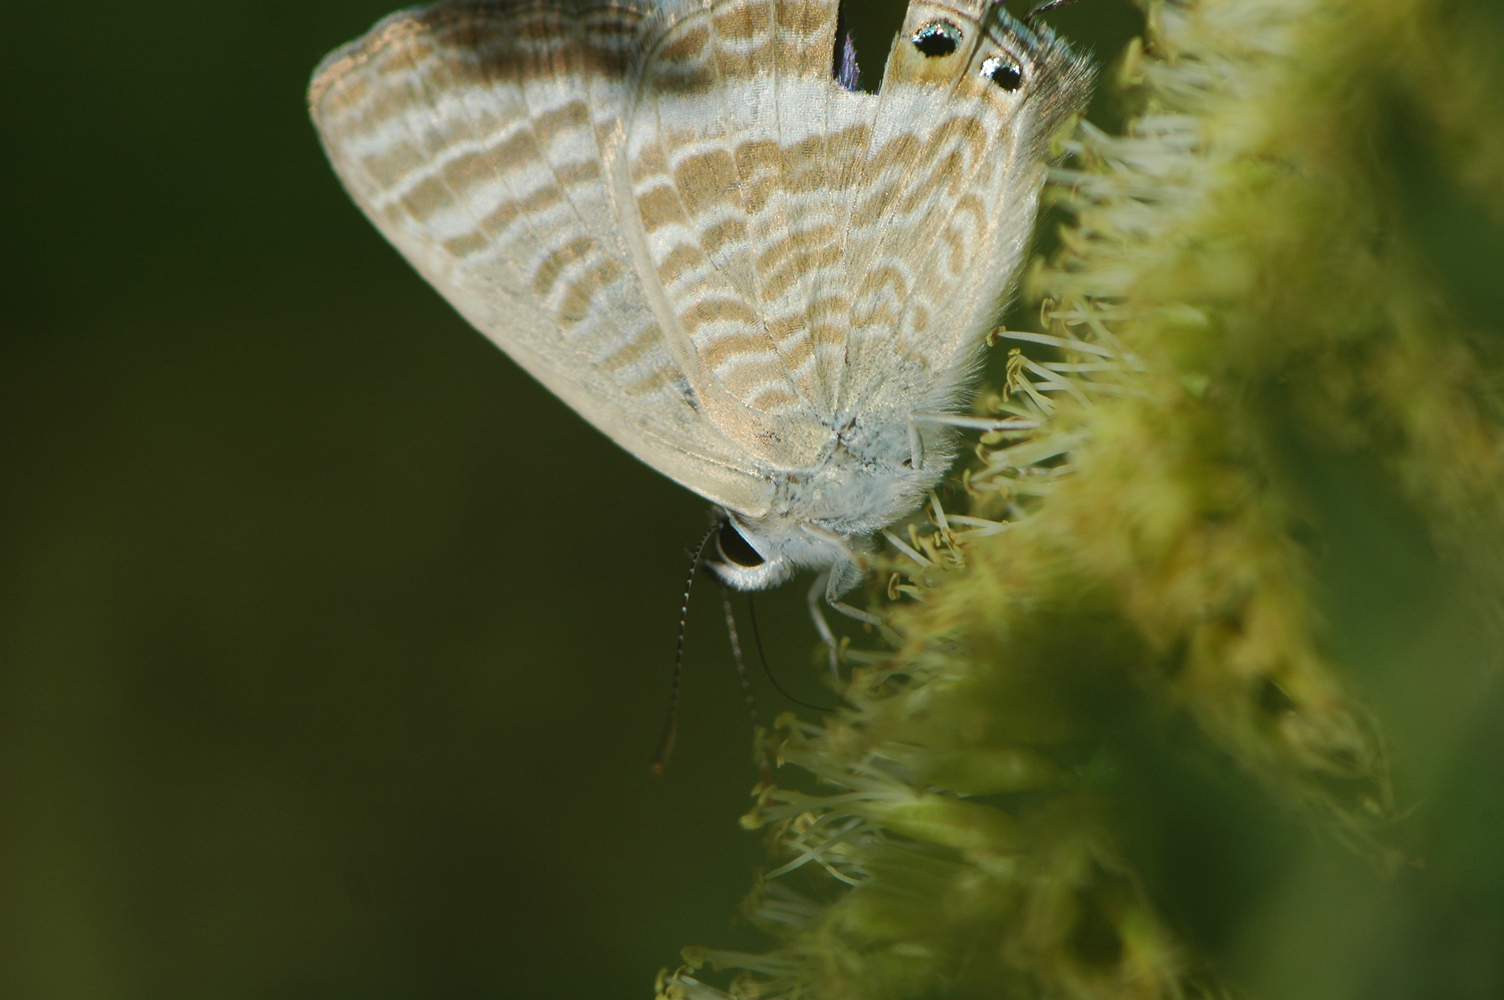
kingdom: Animalia
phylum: Arthropoda
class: Insecta
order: Lepidoptera
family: Lycaenidae
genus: Lampides
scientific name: Lampides boeticus
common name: Long-tailed blue
